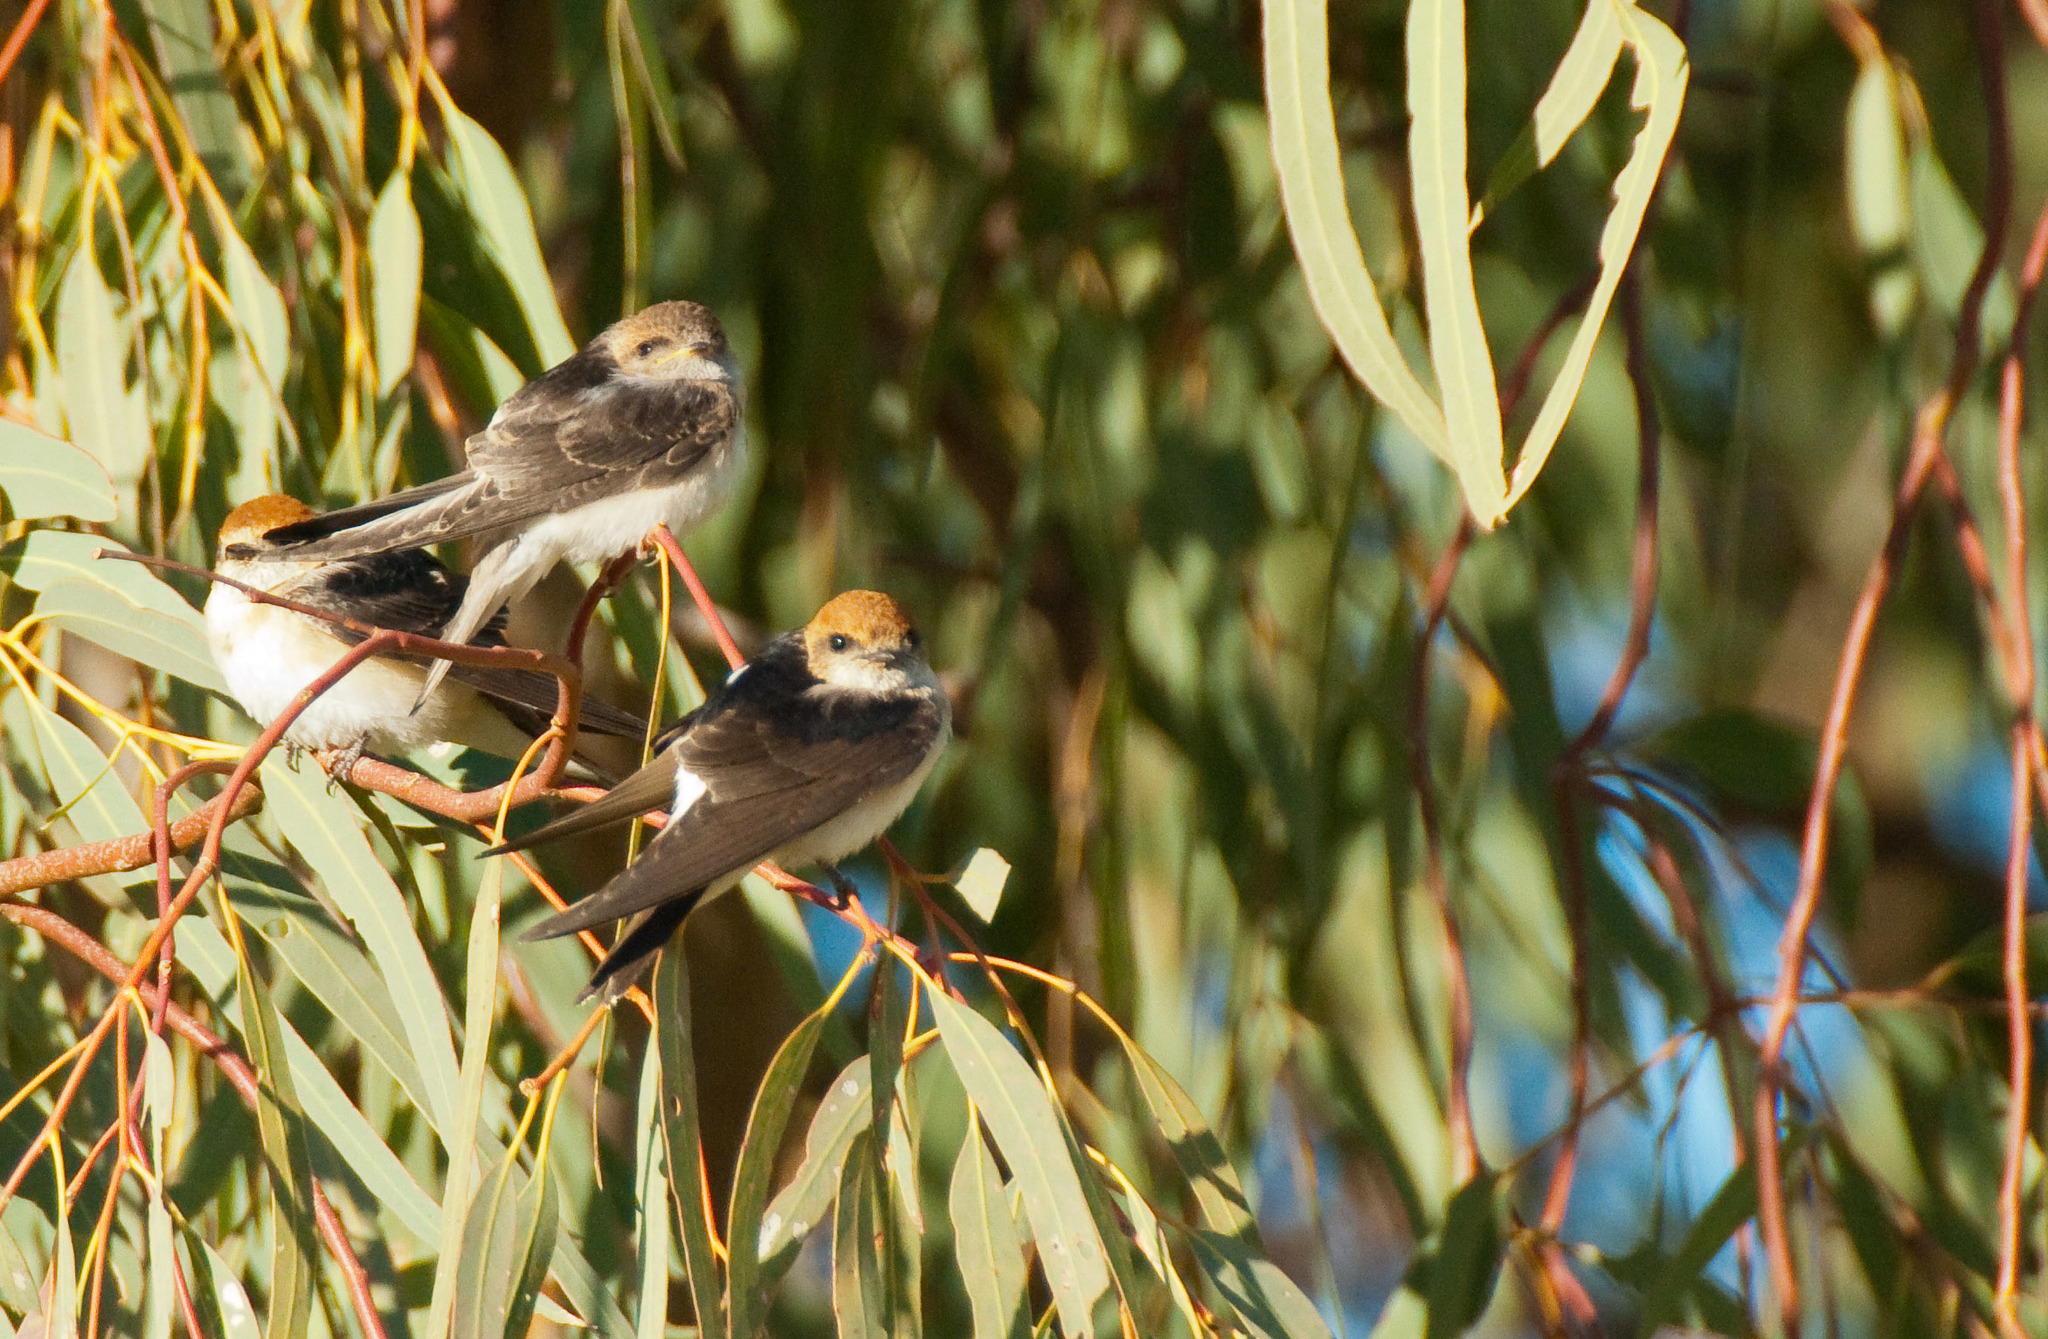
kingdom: Animalia
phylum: Chordata
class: Aves
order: Passeriformes
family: Hirundinidae
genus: Petrochelidon
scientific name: Petrochelidon ariel
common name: Fairy martin
